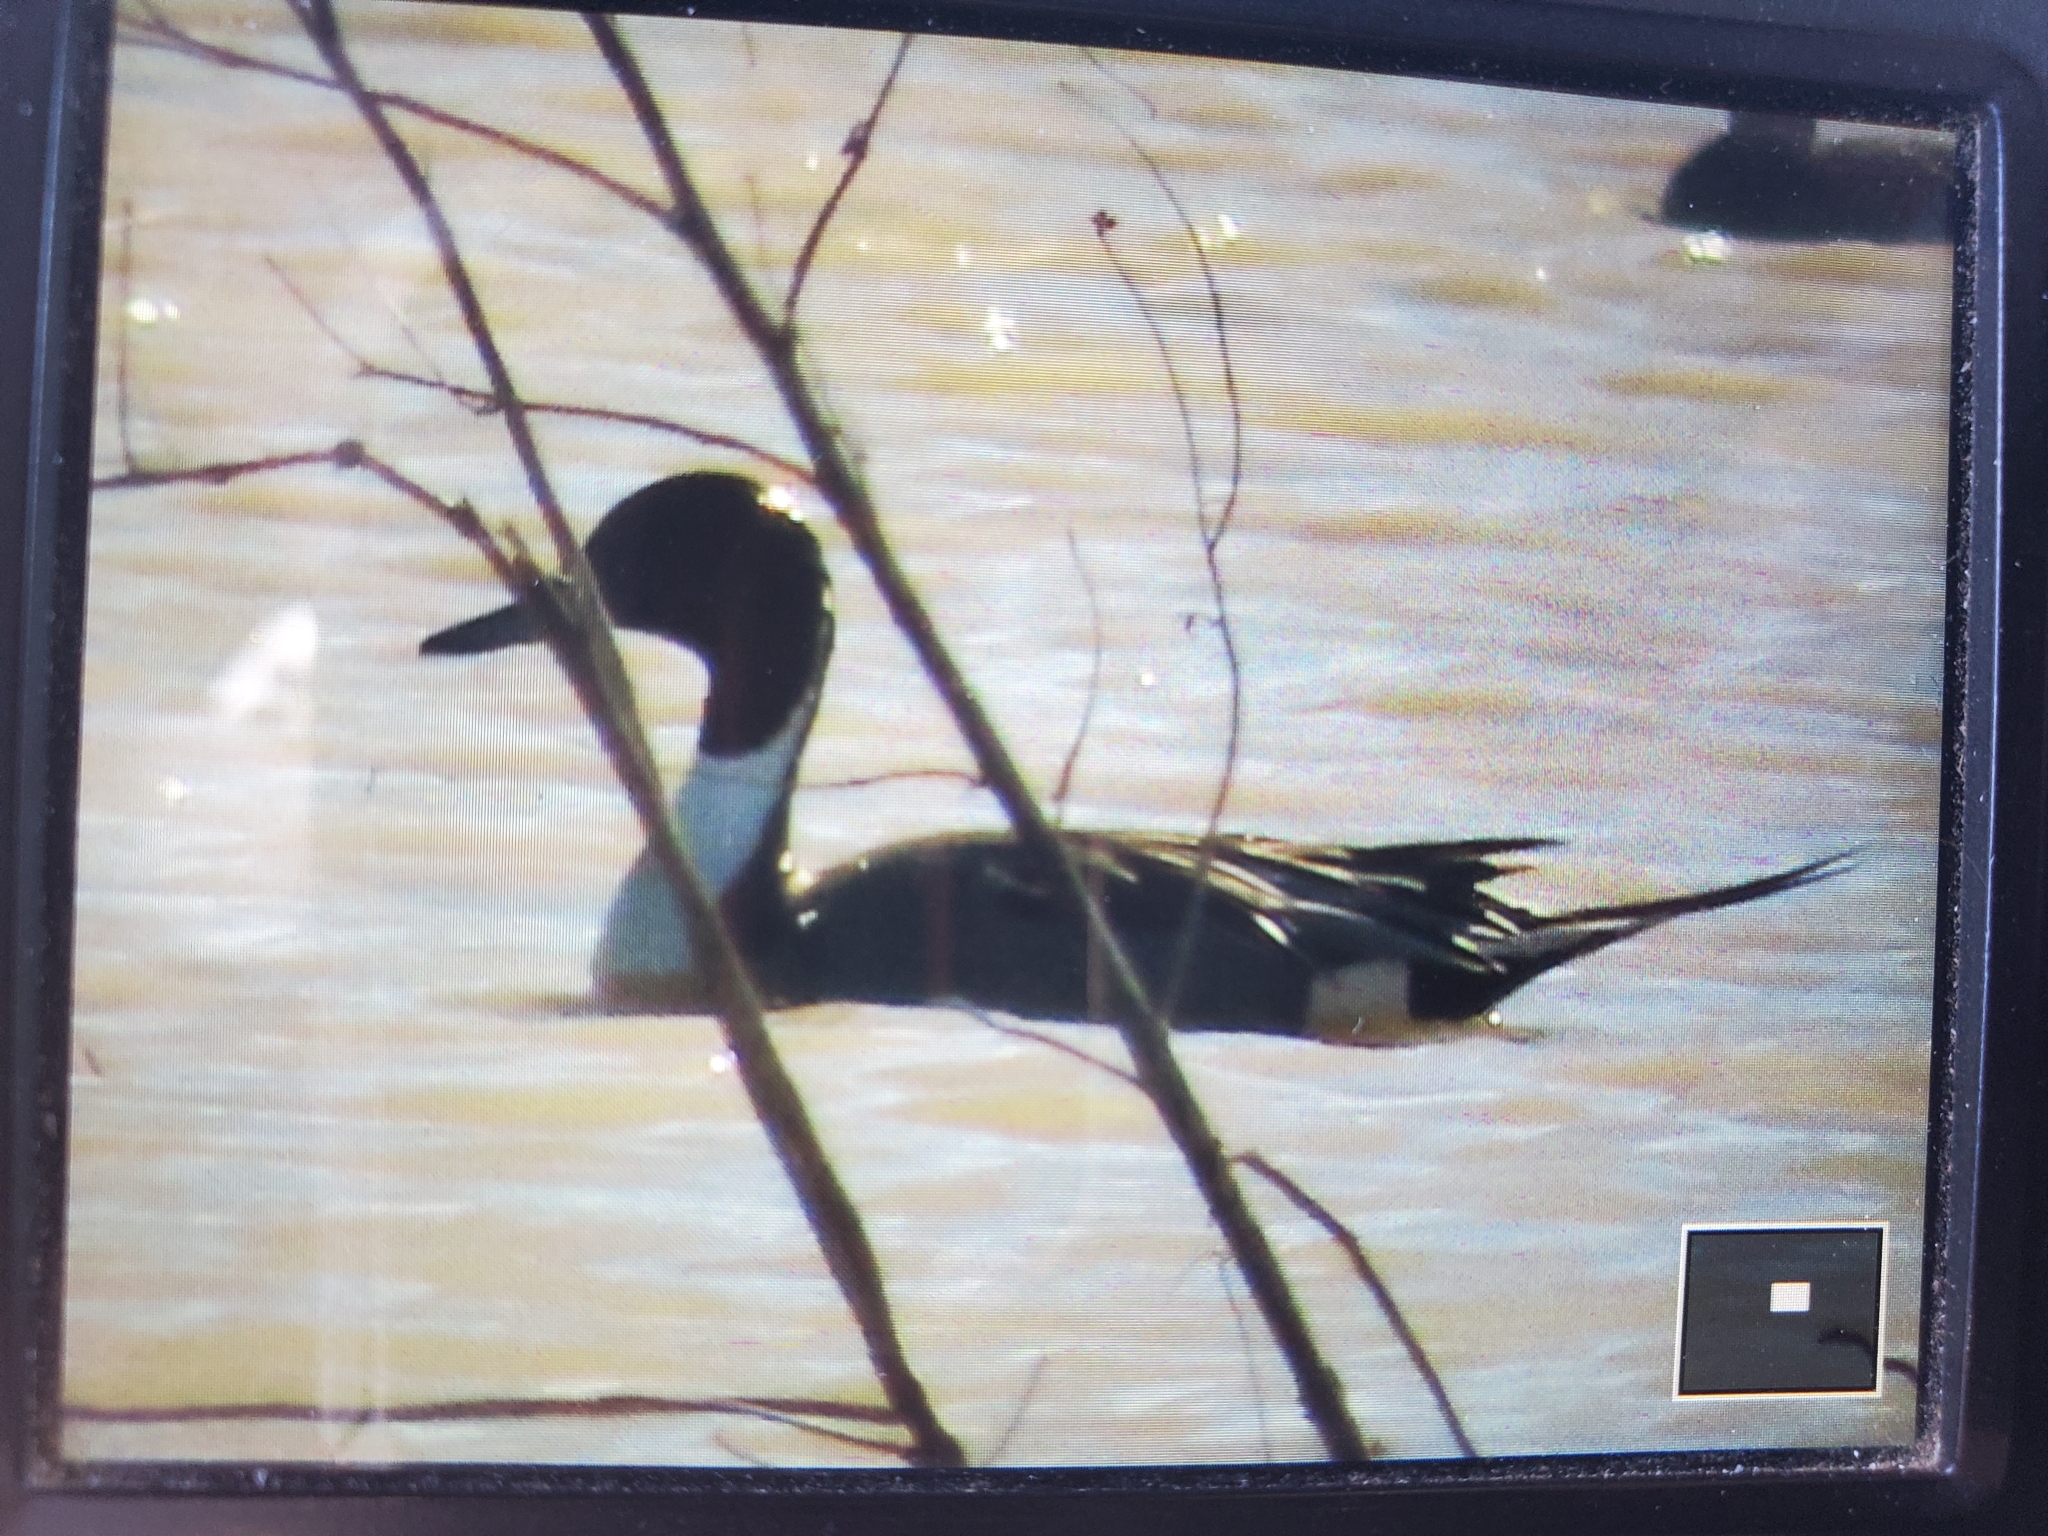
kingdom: Animalia
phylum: Chordata
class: Aves
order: Anseriformes
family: Anatidae
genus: Anas
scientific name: Anas acuta
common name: Northern pintail
